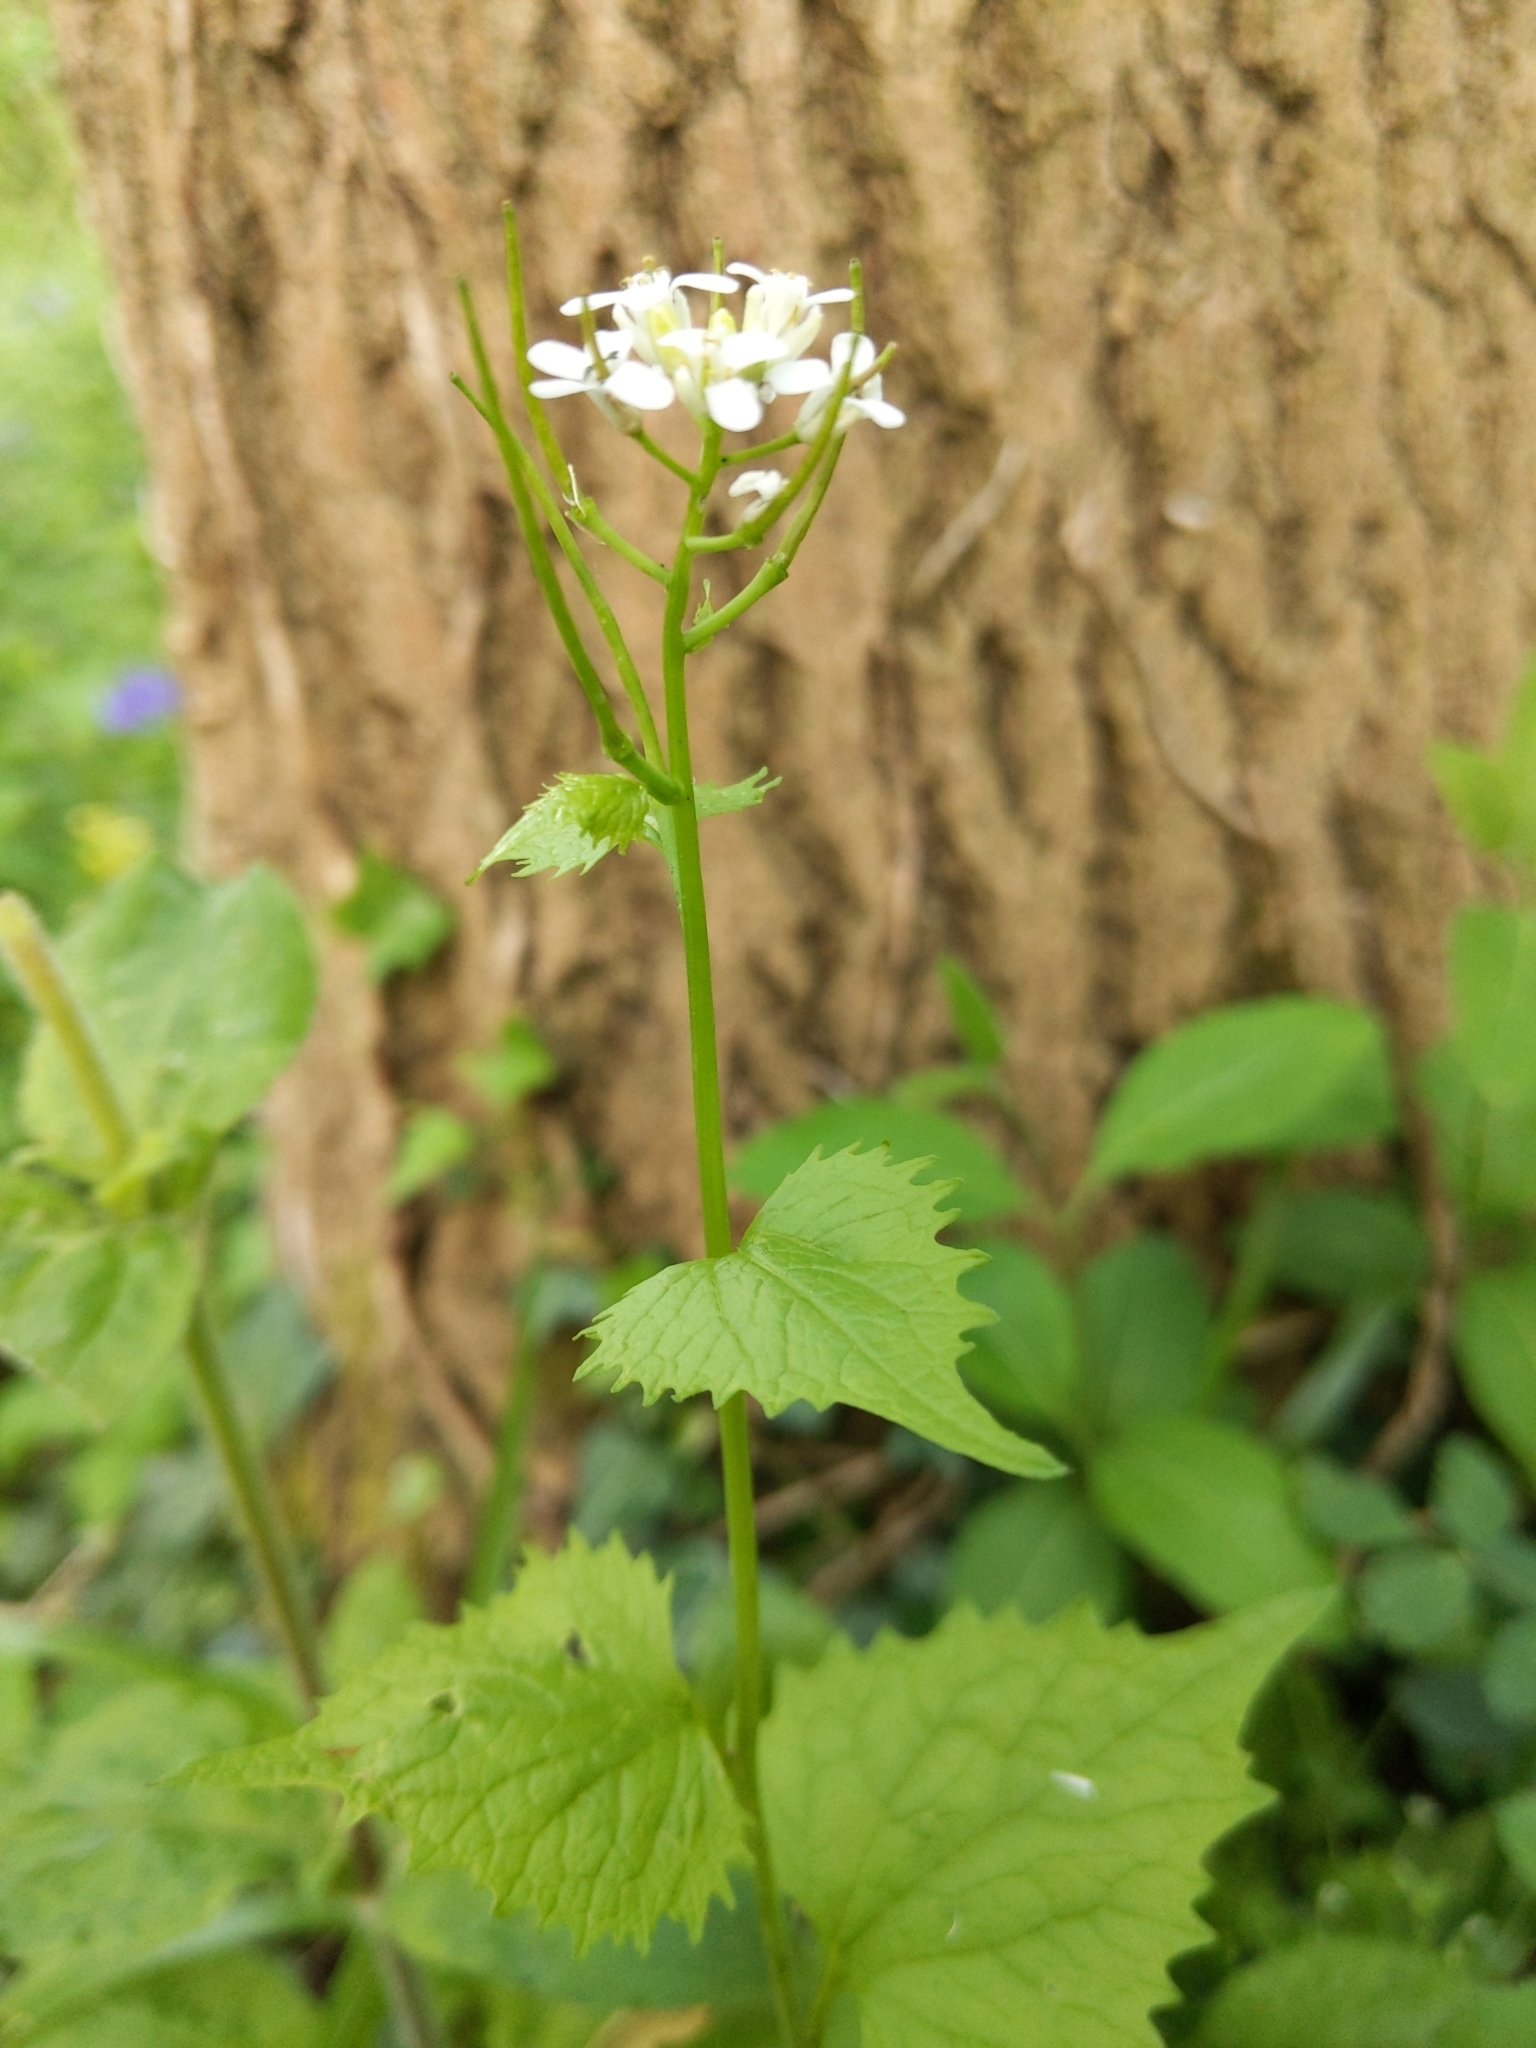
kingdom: Plantae
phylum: Tracheophyta
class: Magnoliopsida
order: Brassicales
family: Brassicaceae
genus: Alliaria
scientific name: Alliaria petiolata
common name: Garlic mustard
